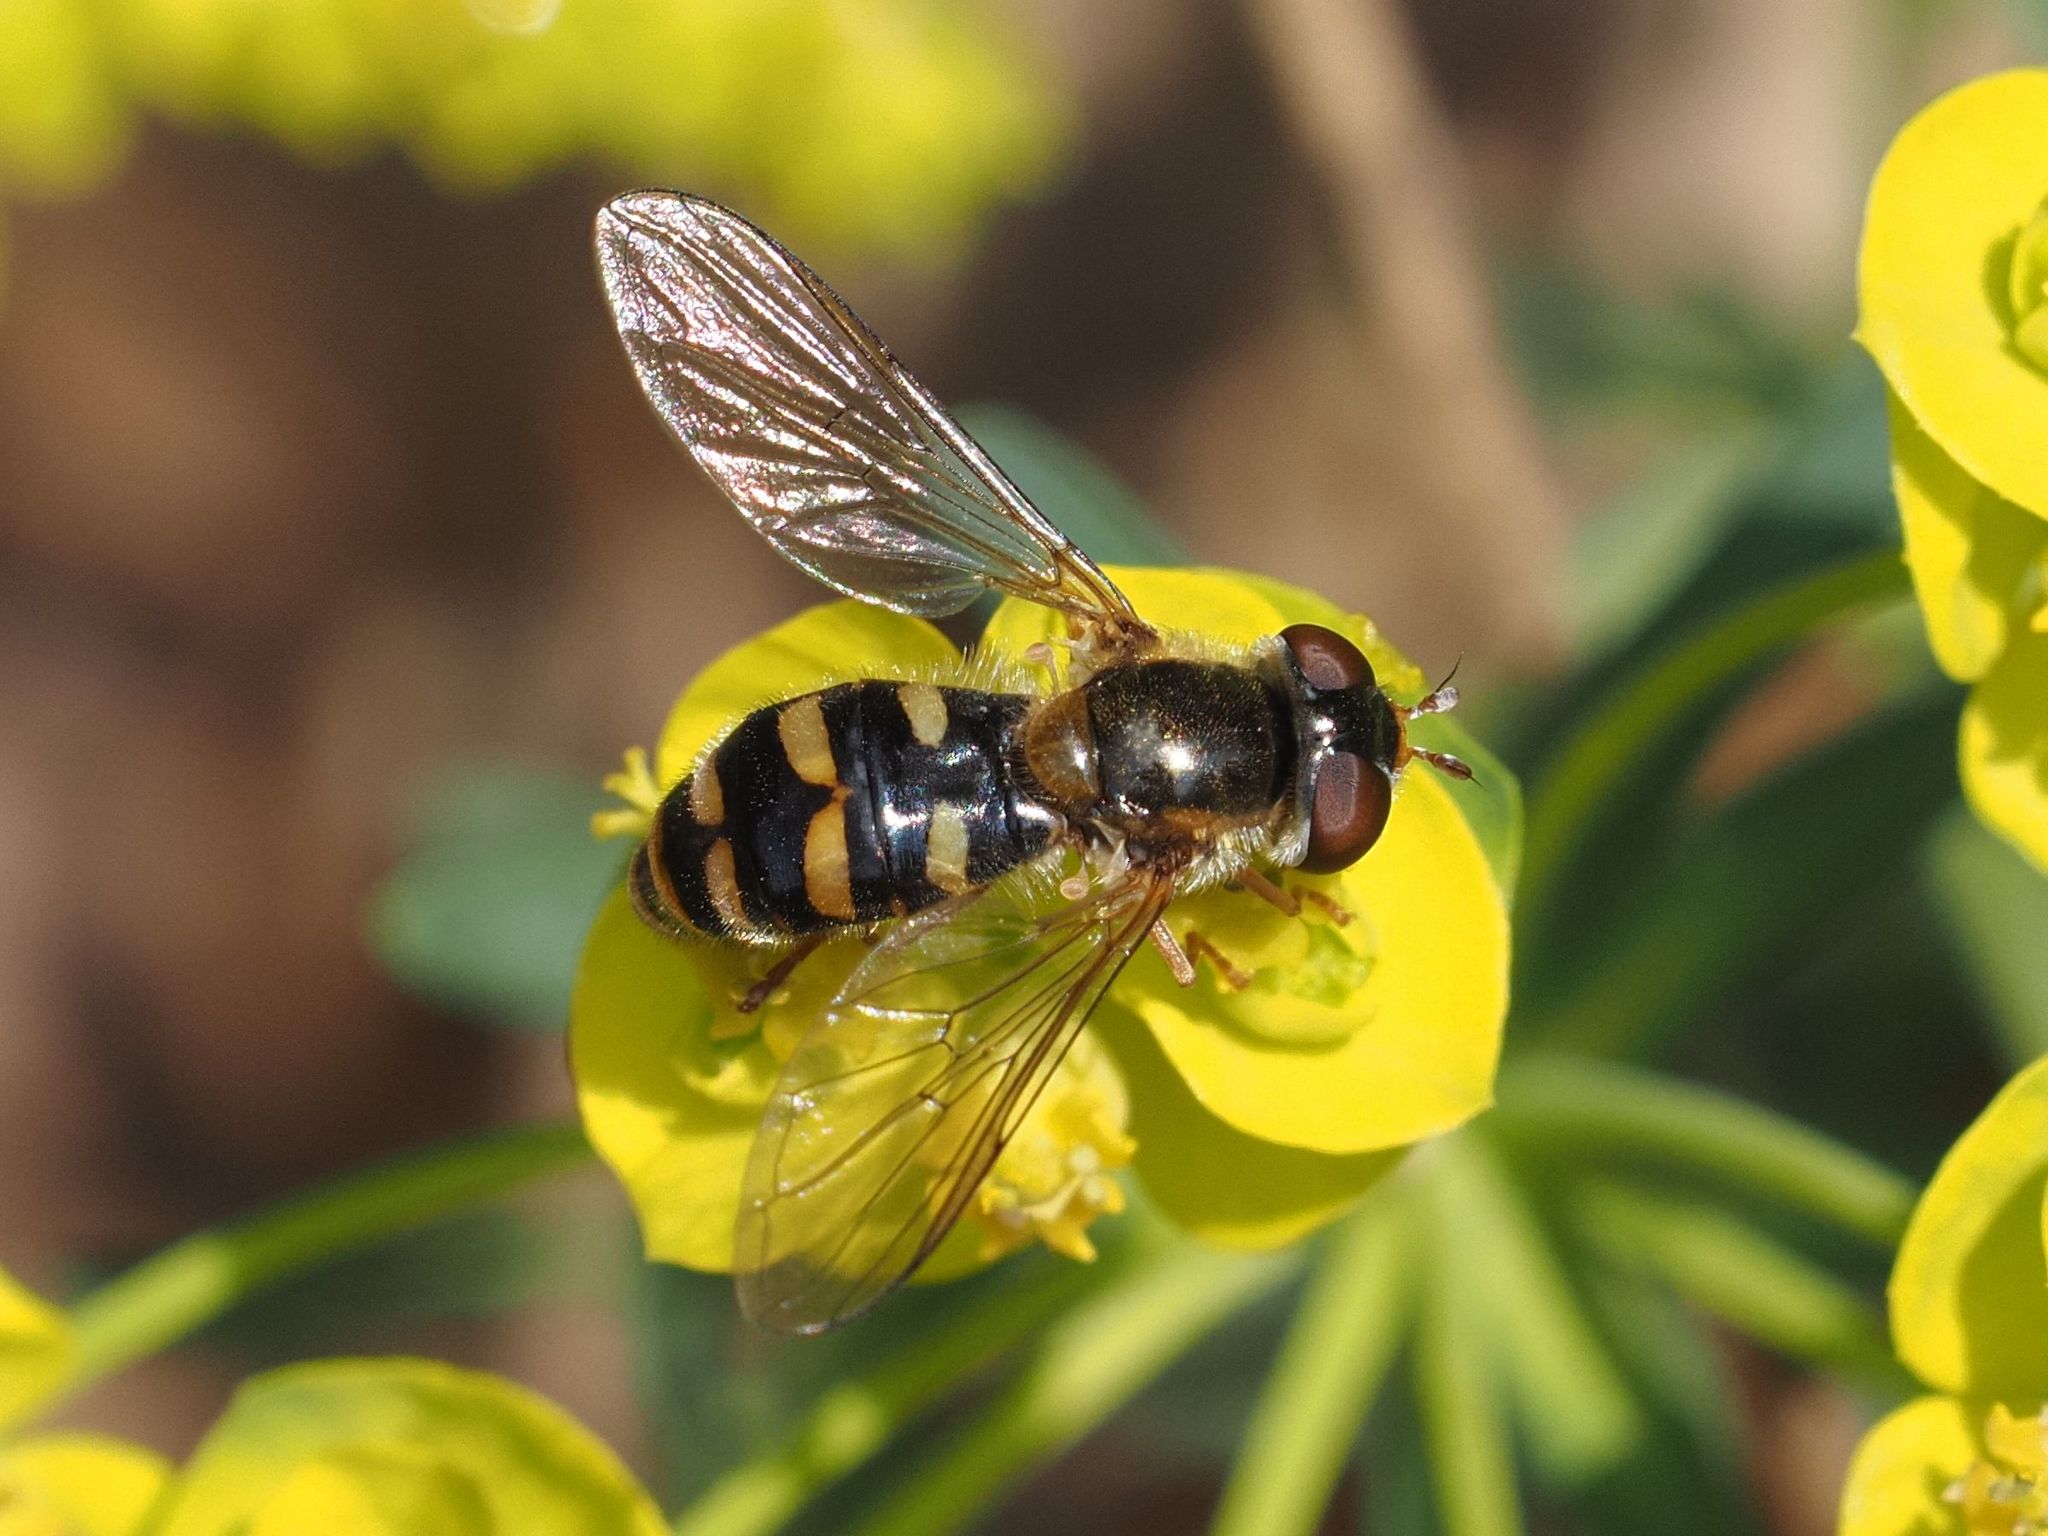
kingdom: Animalia
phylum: Arthropoda
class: Insecta
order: Diptera
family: Syrphidae
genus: Epistrophella
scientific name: Epistrophella euchromus
